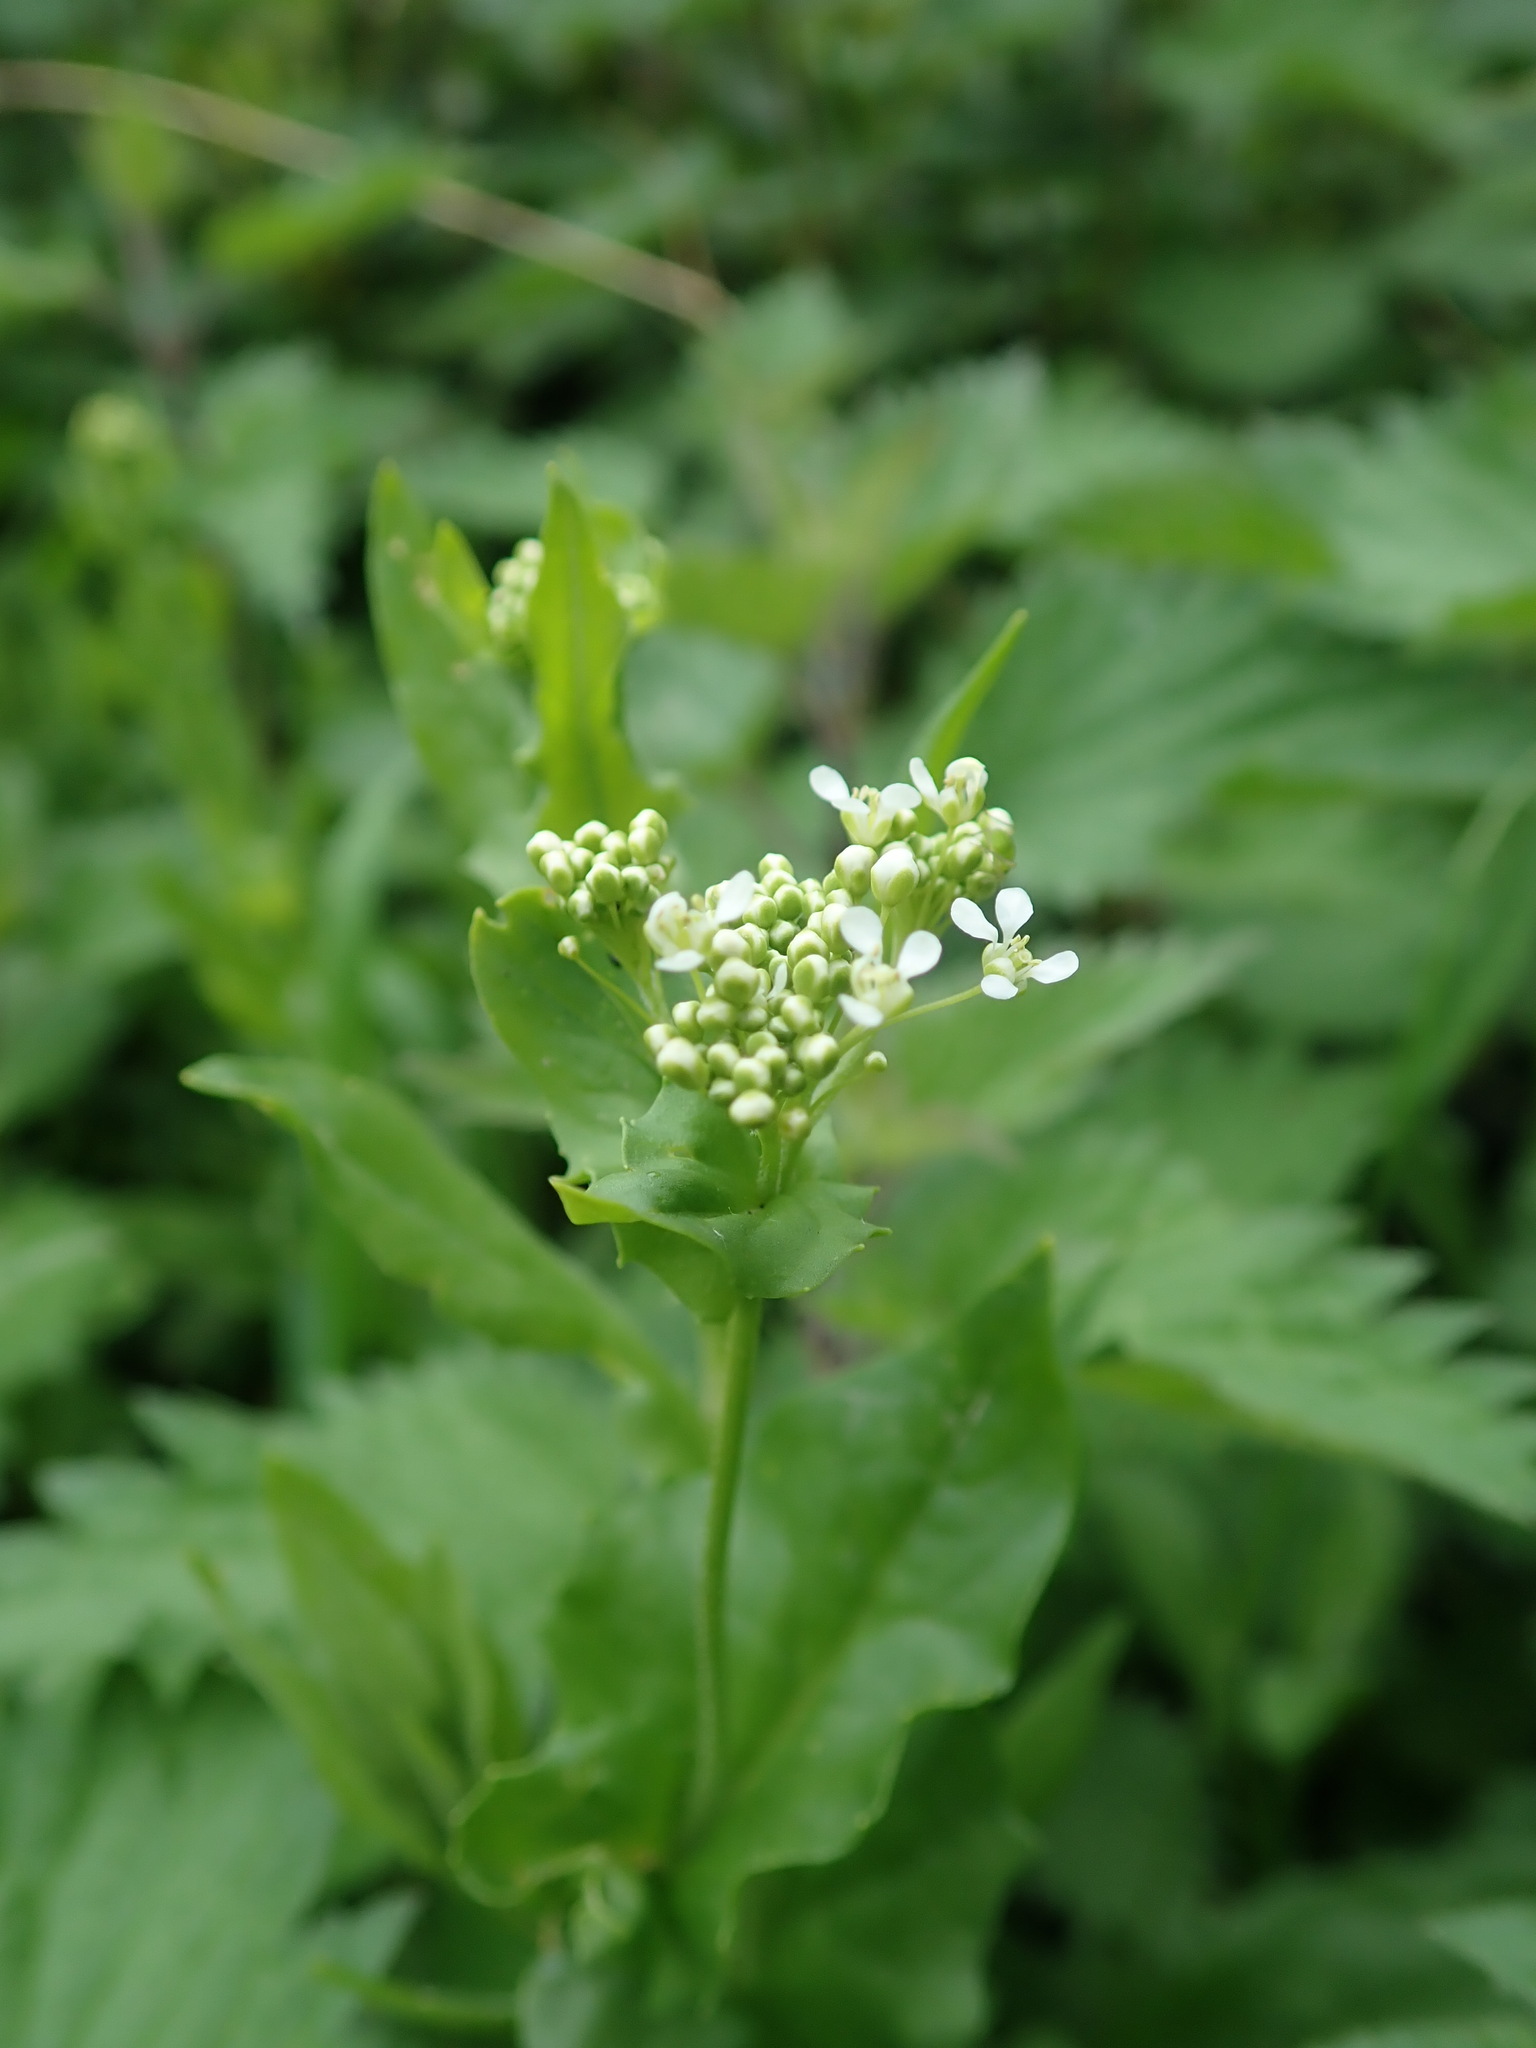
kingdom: Plantae
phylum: Tracheophyta
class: Magnoliopsida
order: Brassicales
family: Brassicaceae
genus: Lepidium
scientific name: Lepidium draba
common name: Hoary cress
